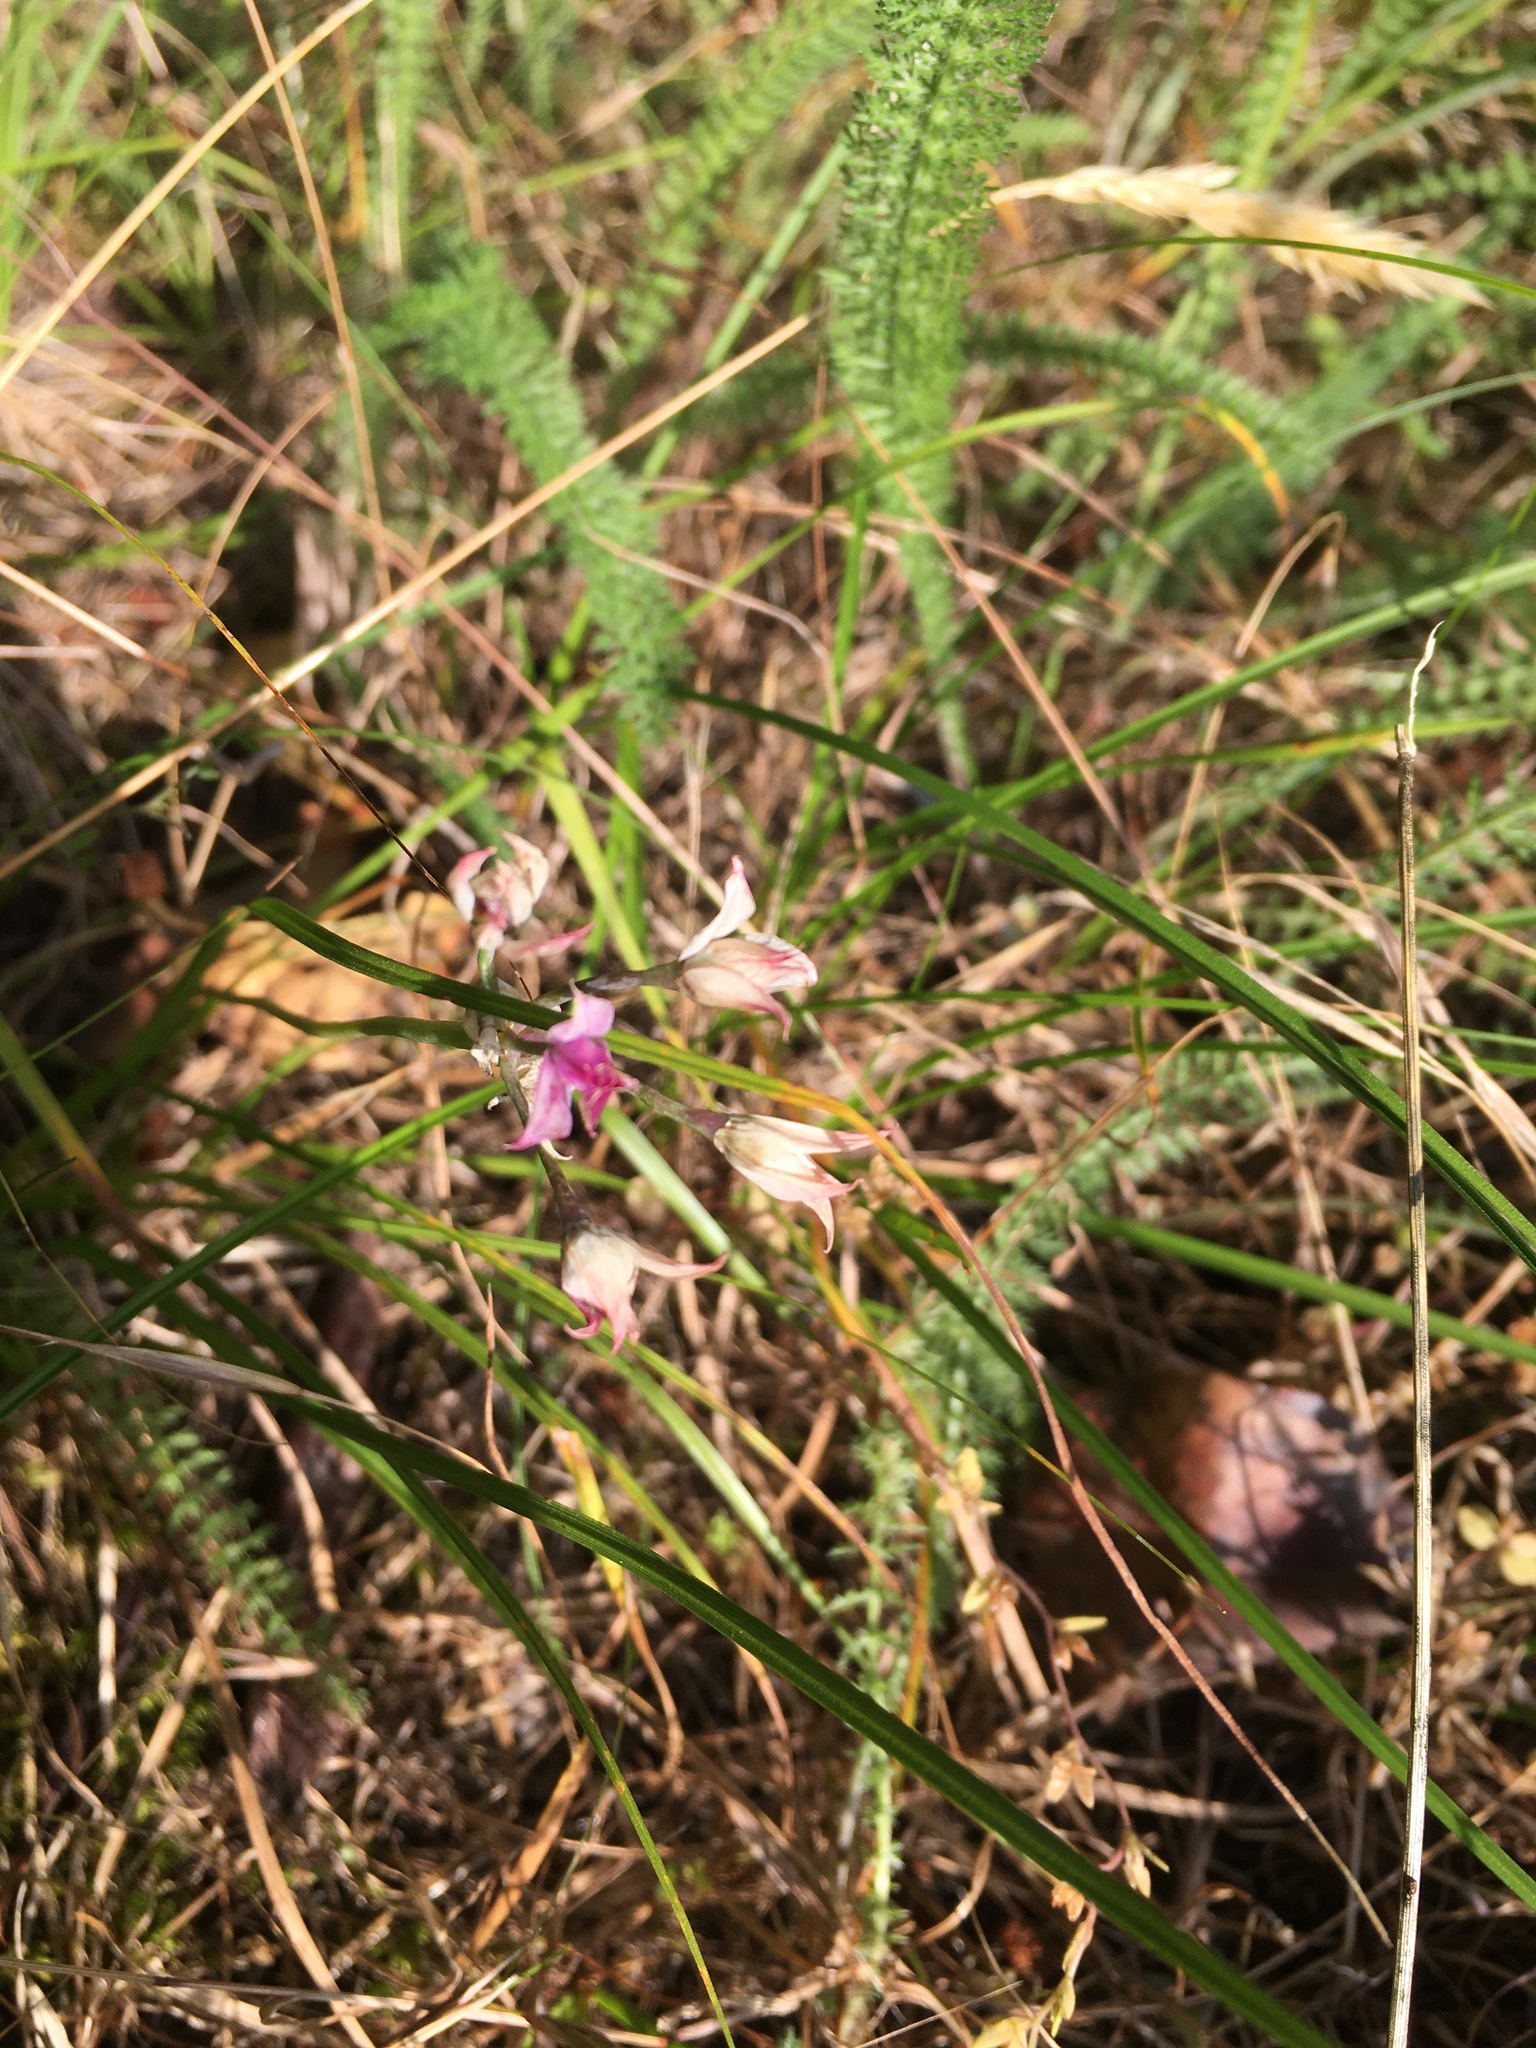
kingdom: Plantae
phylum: Tracheophyta
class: Liliopsida
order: Asparagales
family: Amaryllidaceae
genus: Allium
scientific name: Allium acuminatum
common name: Hooker's onion
